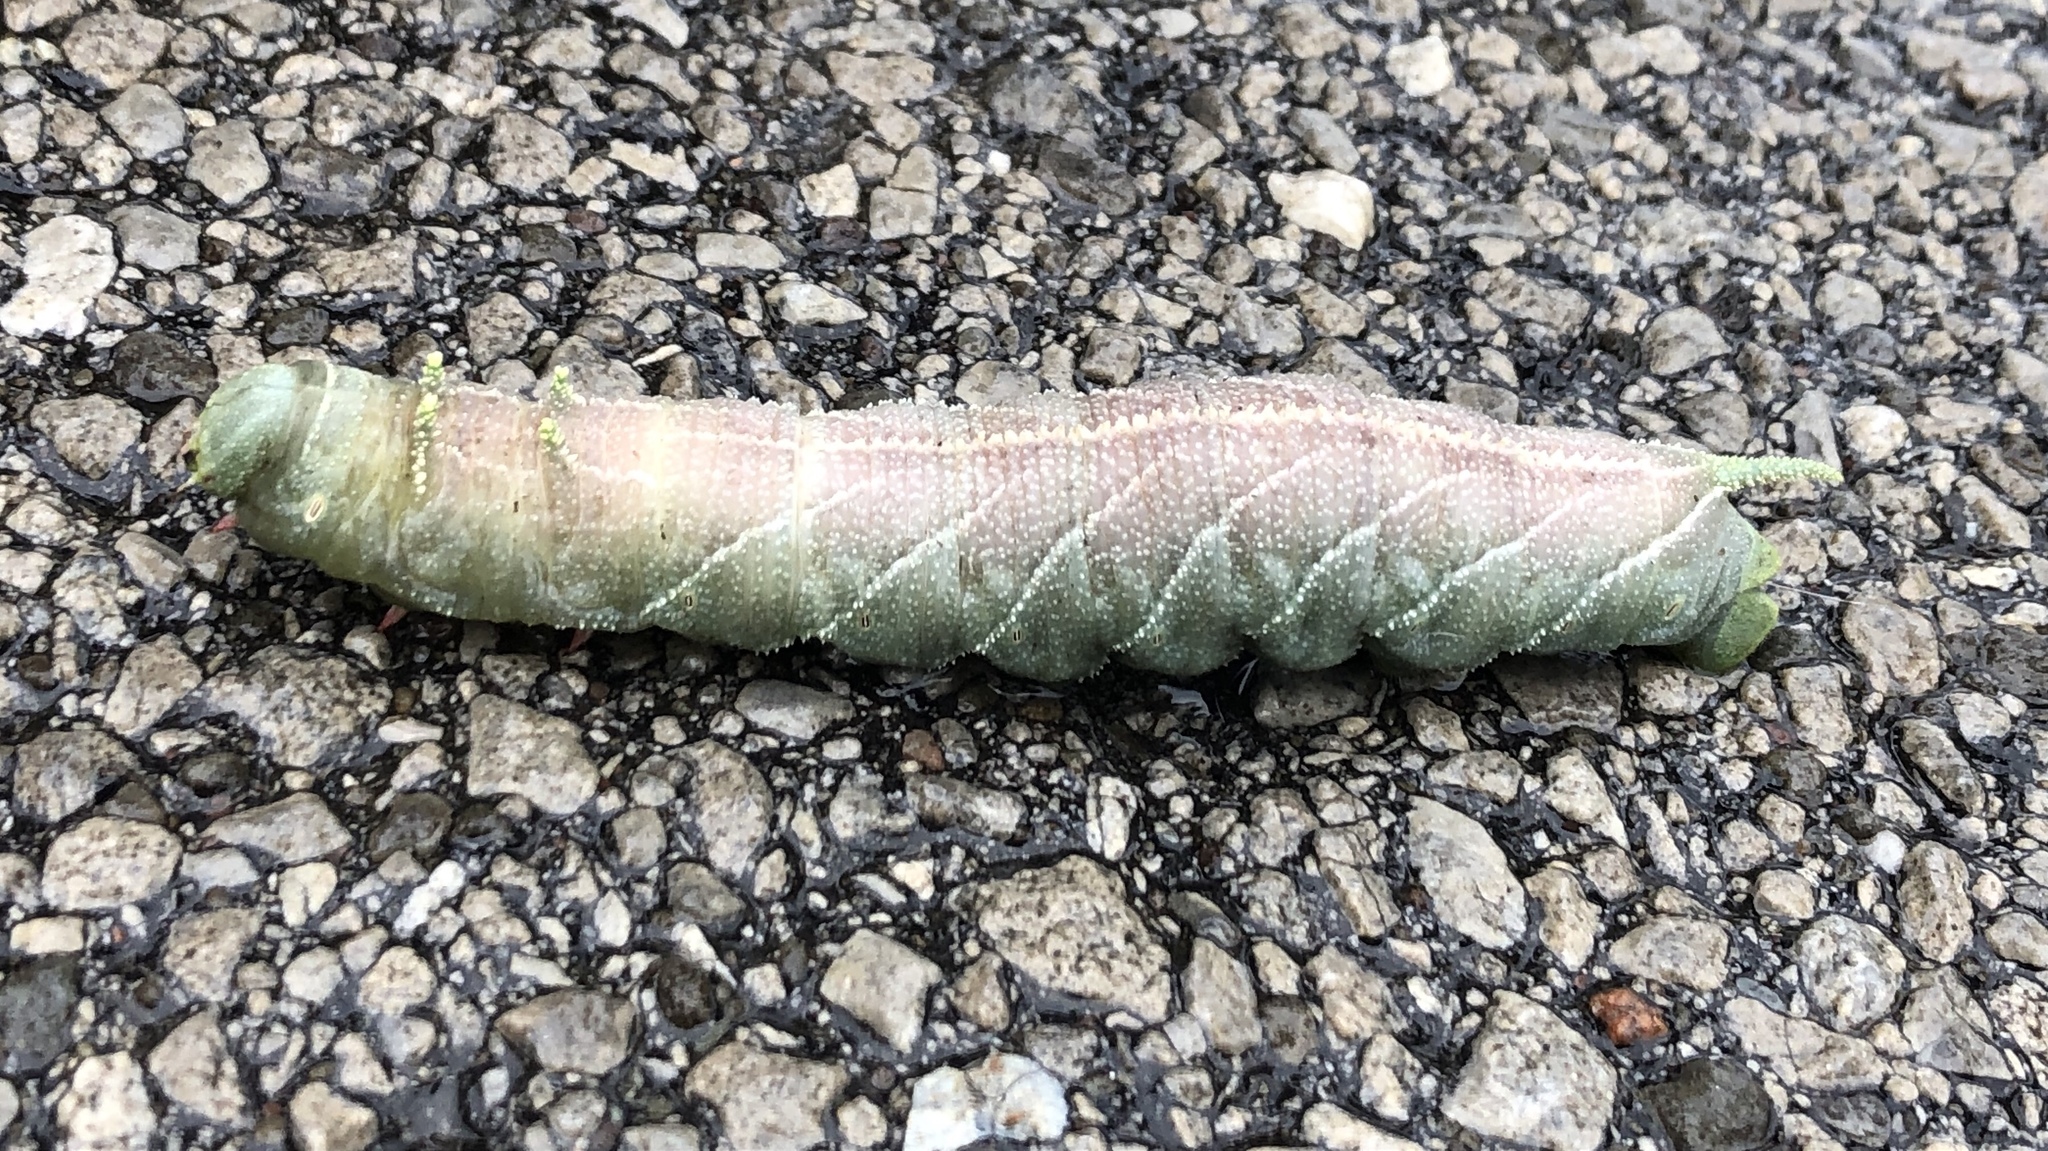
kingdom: Animalia
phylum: Arthropoda
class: Insecta
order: Lepidoptera
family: Sphingidae
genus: Ceratomia
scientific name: Ceratomia amyntor
